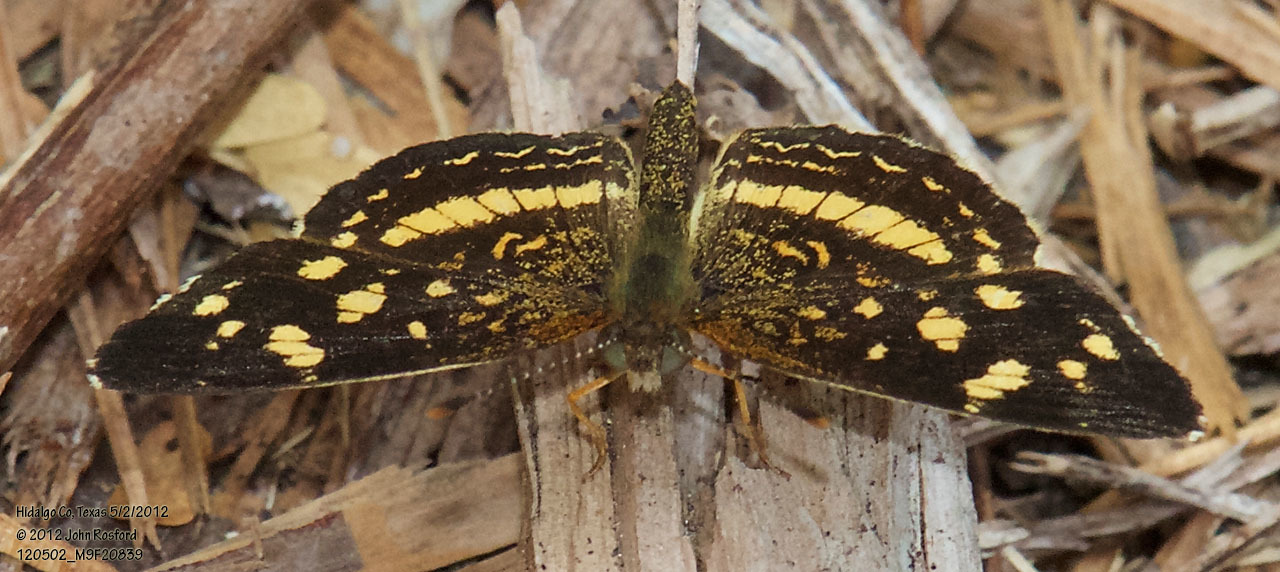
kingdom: Animalia
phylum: Arthropoda
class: Insecta
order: Lepidoptera
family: Nymphalidae
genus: Anthanassa
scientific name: Anthanassa tulcis
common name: Pale-banded crescent
